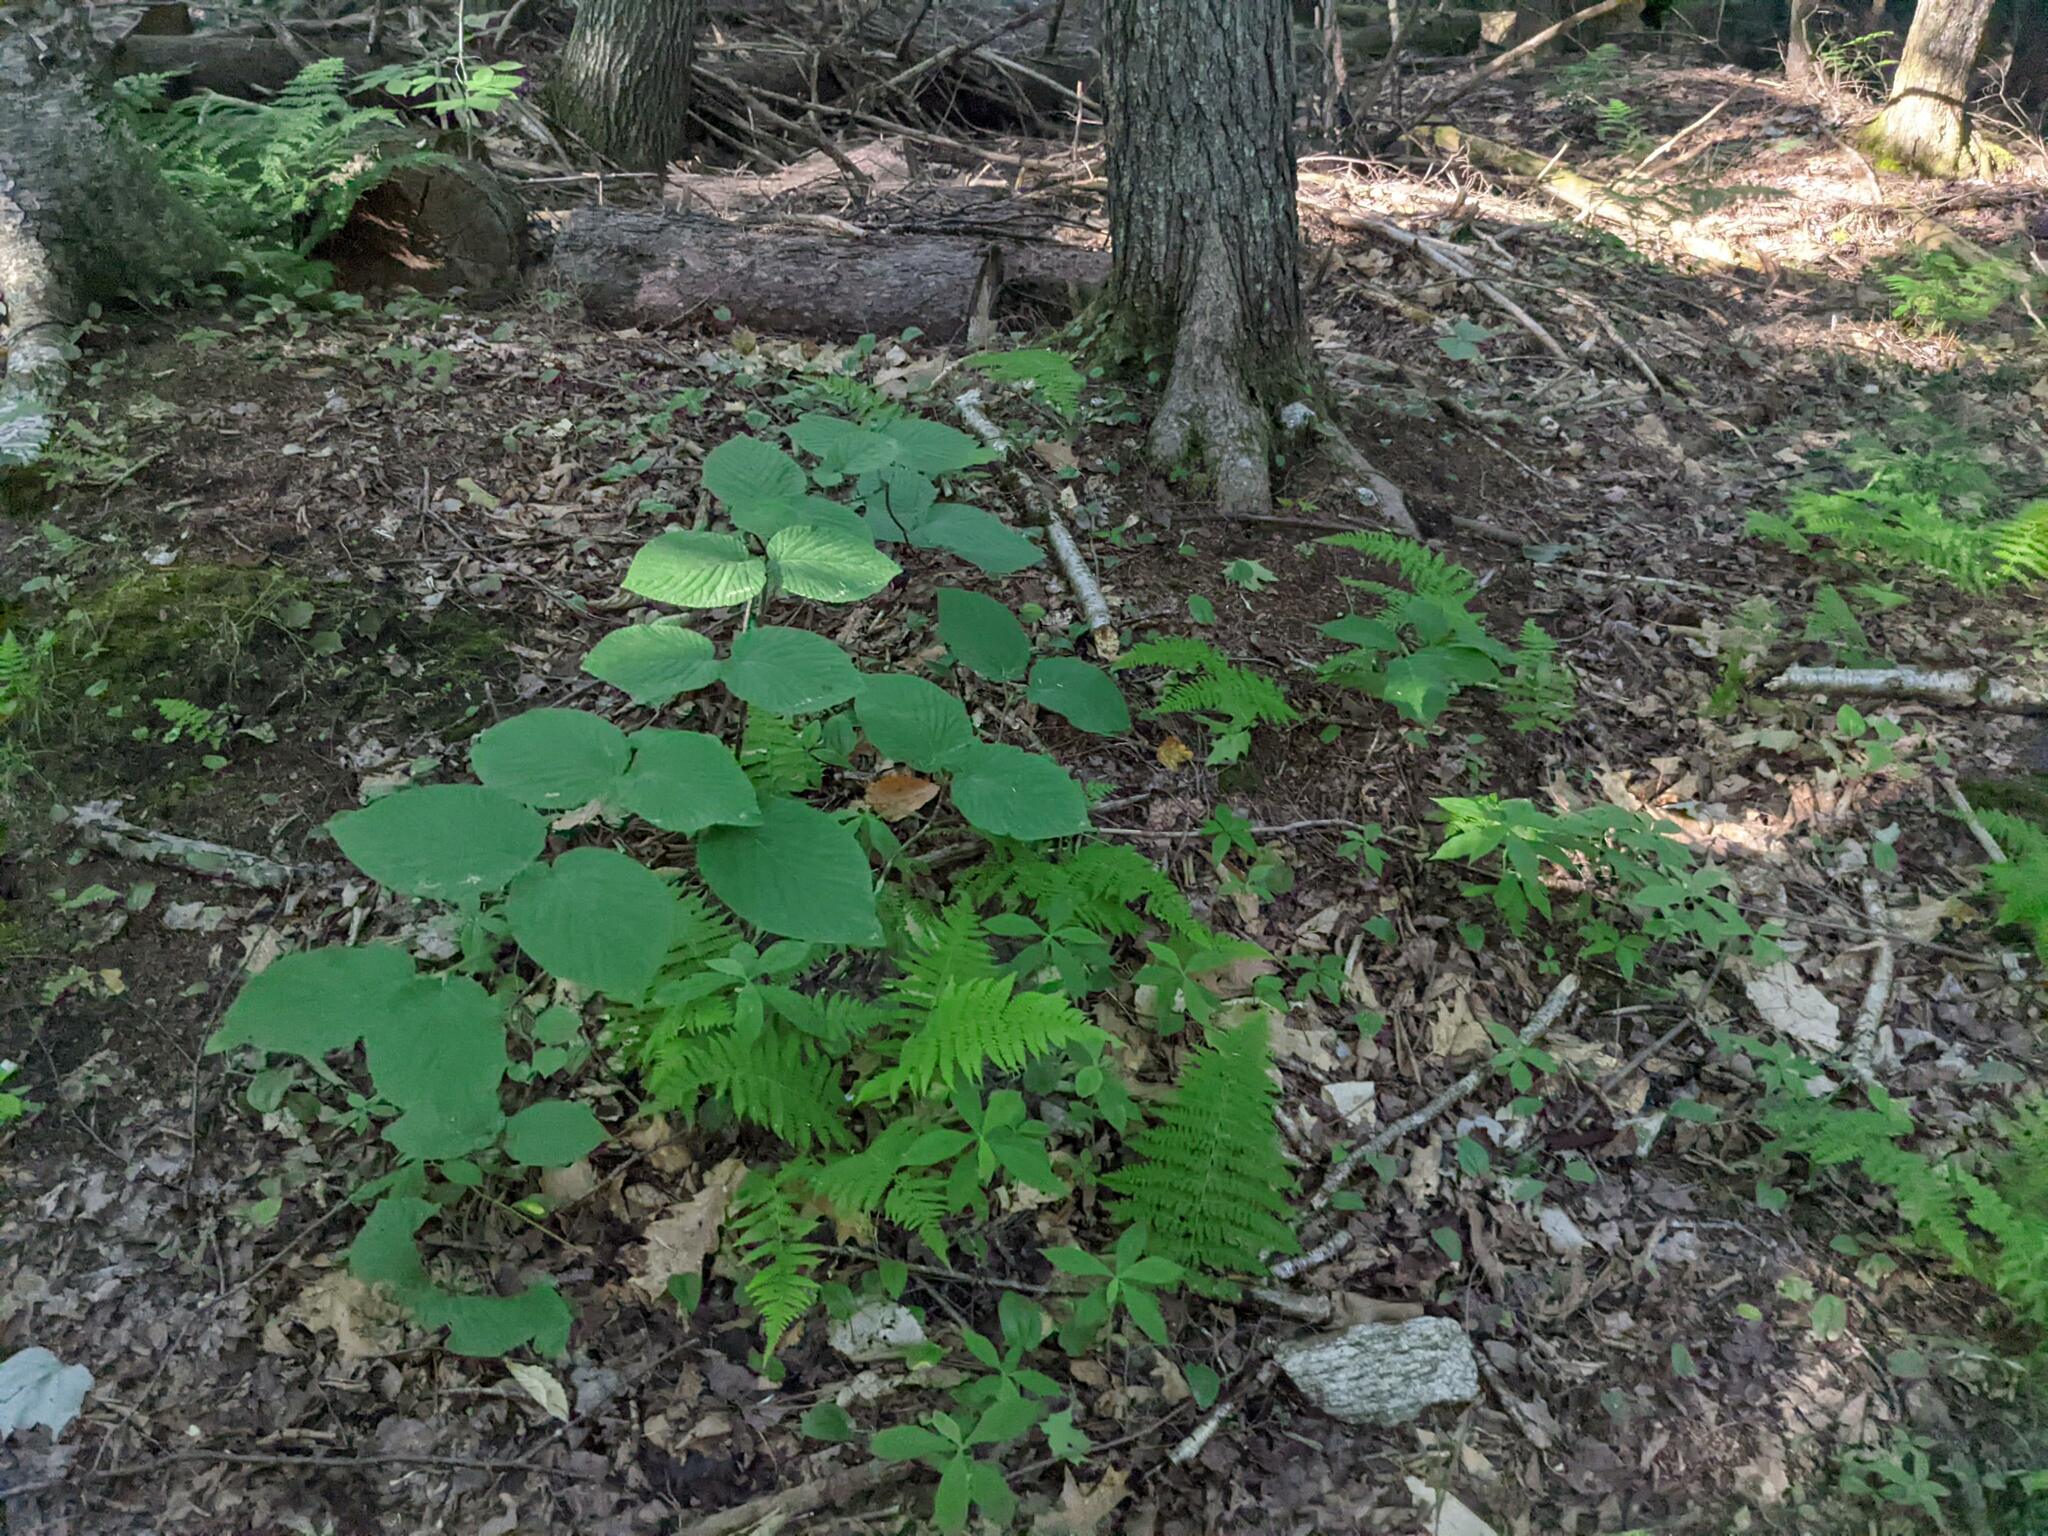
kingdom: Plantae
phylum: Tracheophyta
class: Magnoliopsida
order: Dipsacales
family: Viburnaceae
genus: Viburnum
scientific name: Viburnum lantanoides
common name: Hobblebush
